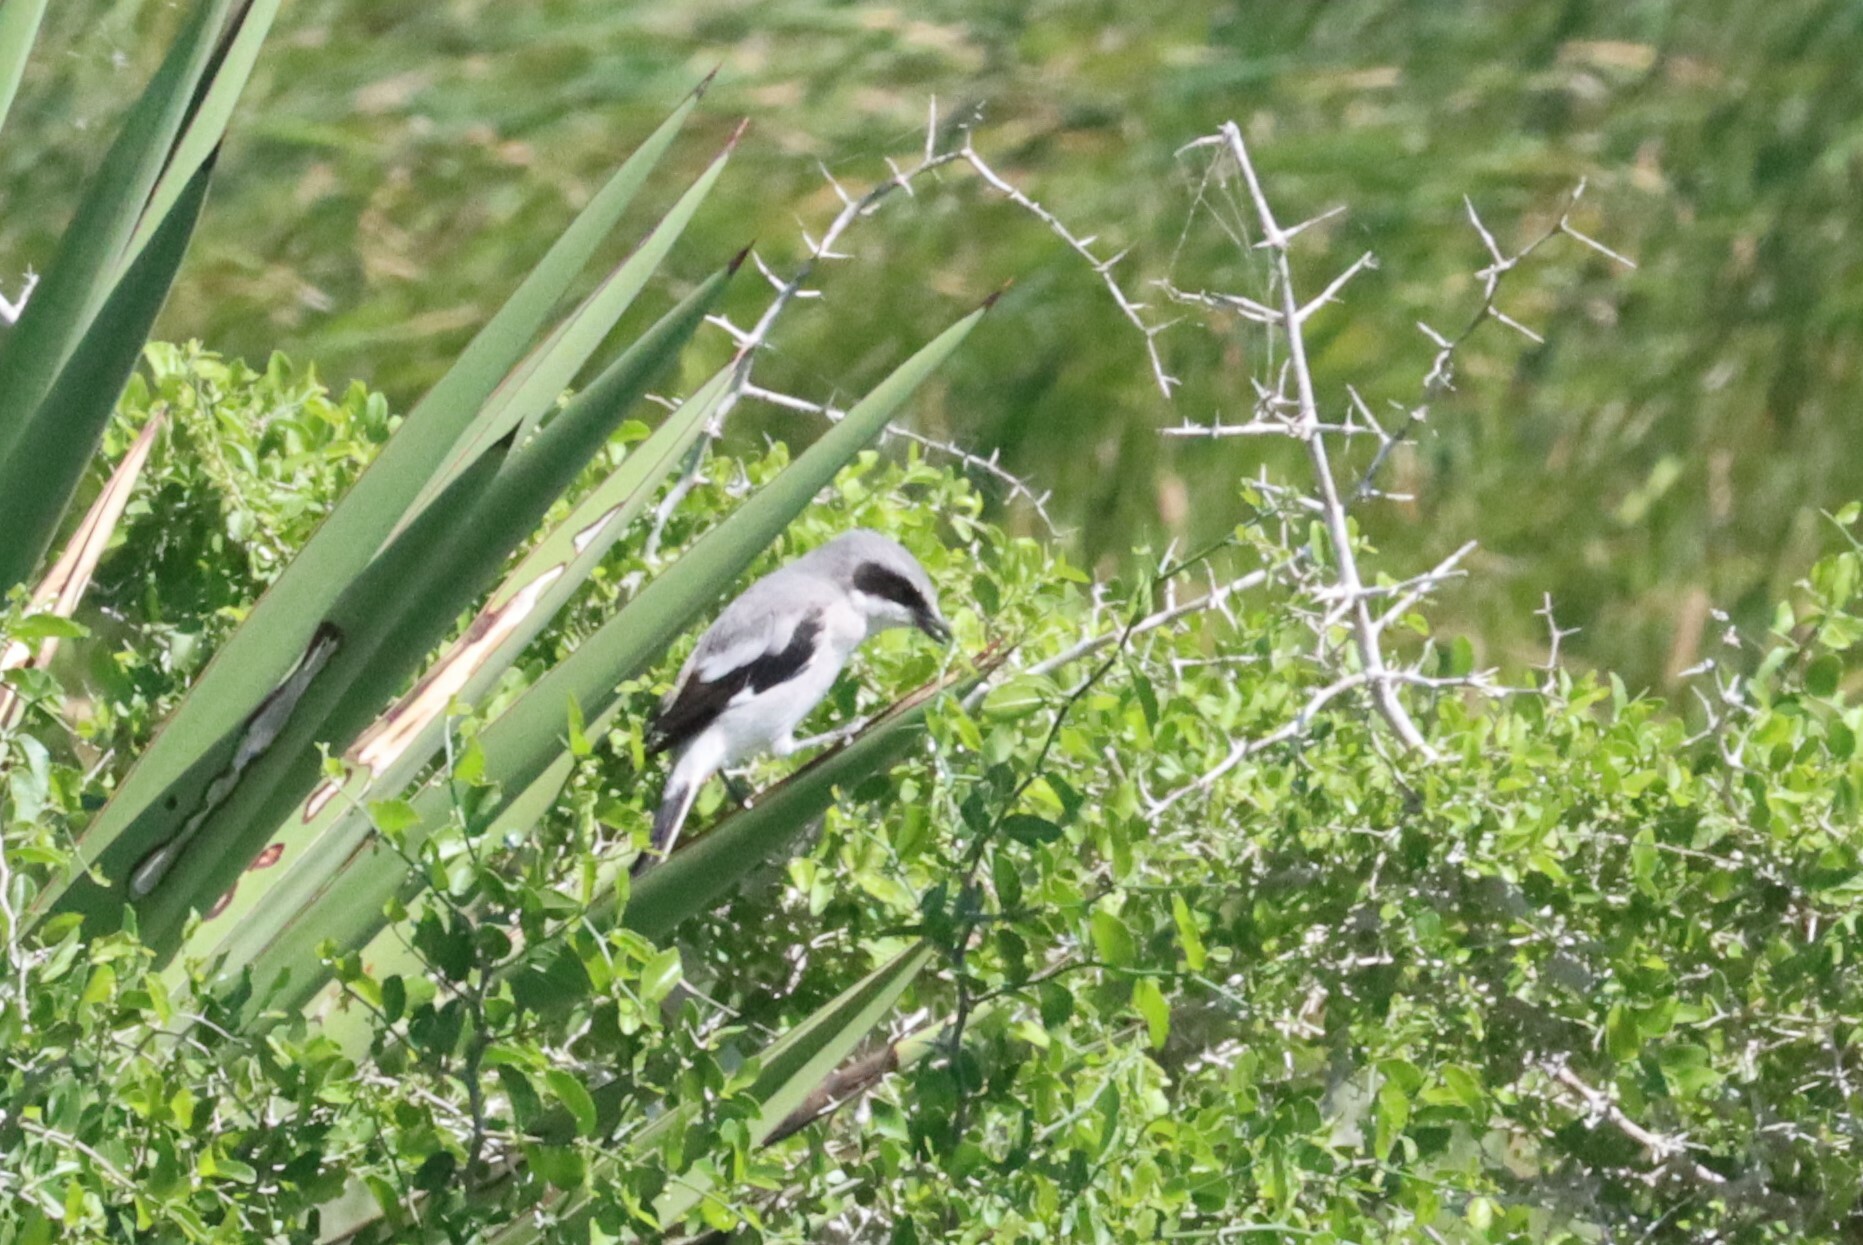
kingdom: Animalia
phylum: Chordata
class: Aves
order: Passeriformes
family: Laniidae
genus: Lanius
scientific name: Lanius ludovicianus
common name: Loggerhead shrike
